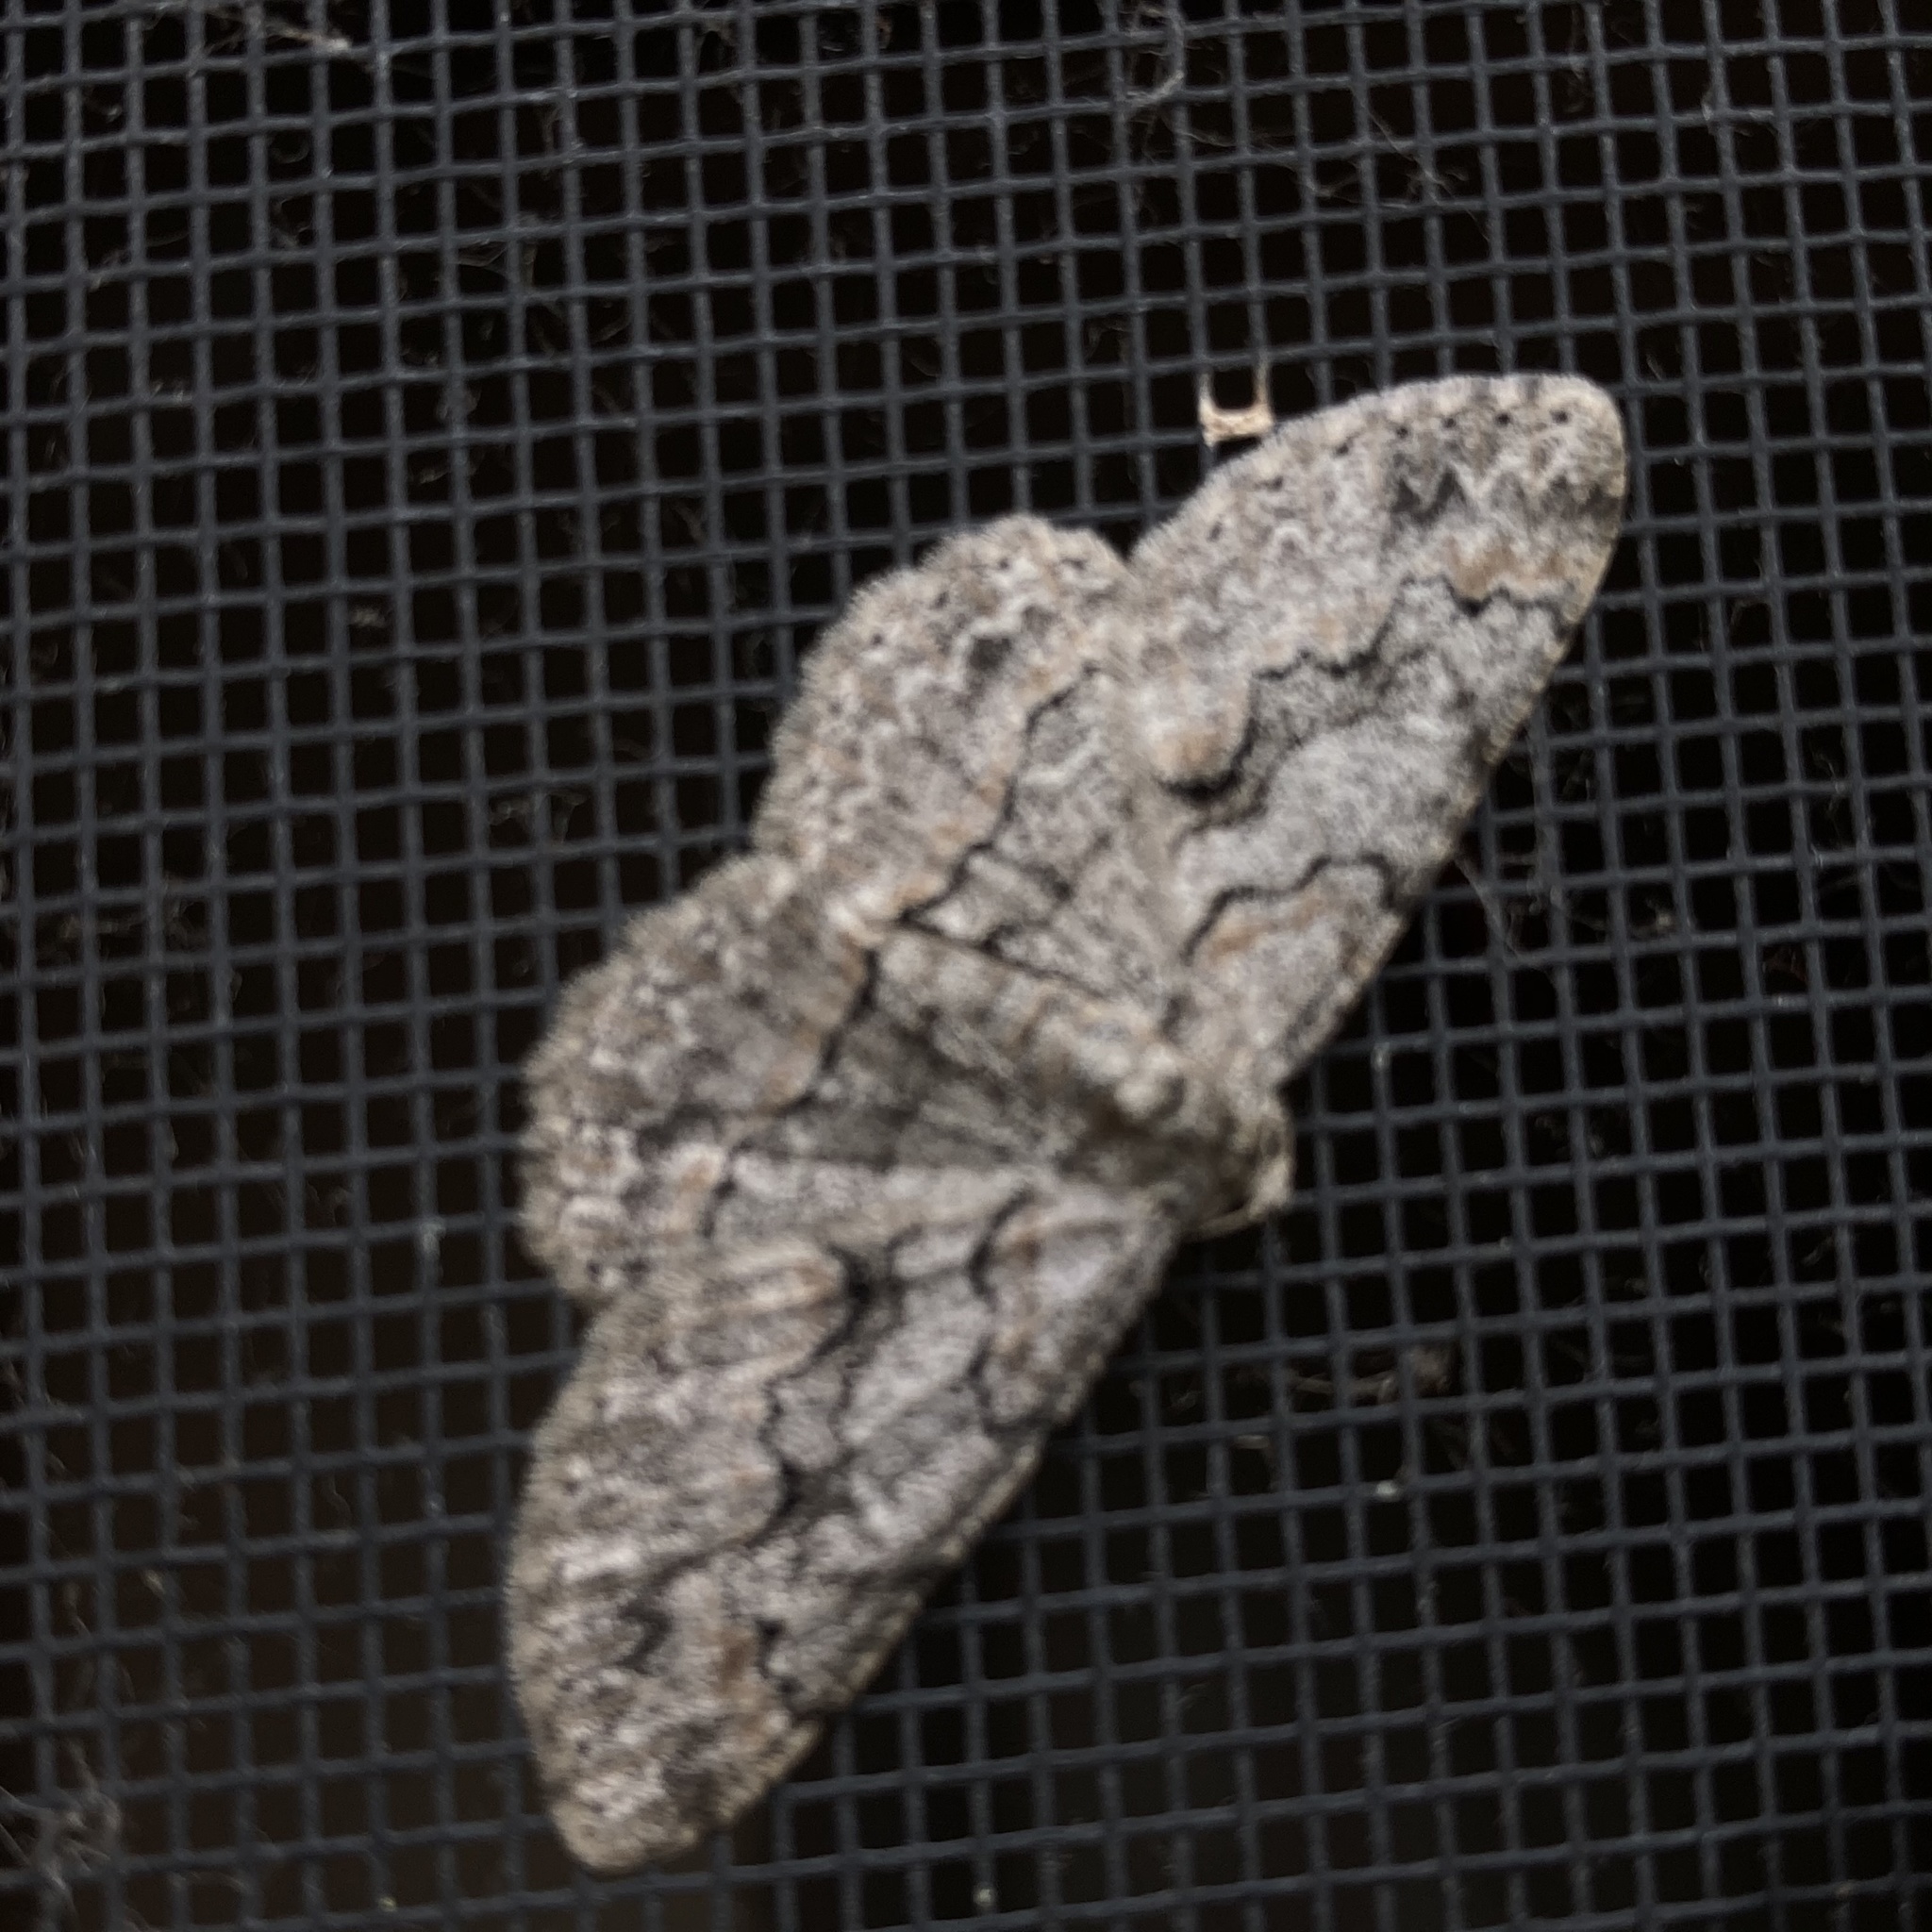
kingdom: Animalia
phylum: Arthropoda
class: Insecta
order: Lepidoptera
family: Geometridae
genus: Iridopsis
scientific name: Iridopsis defectaria
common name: Brown-shaded gray
